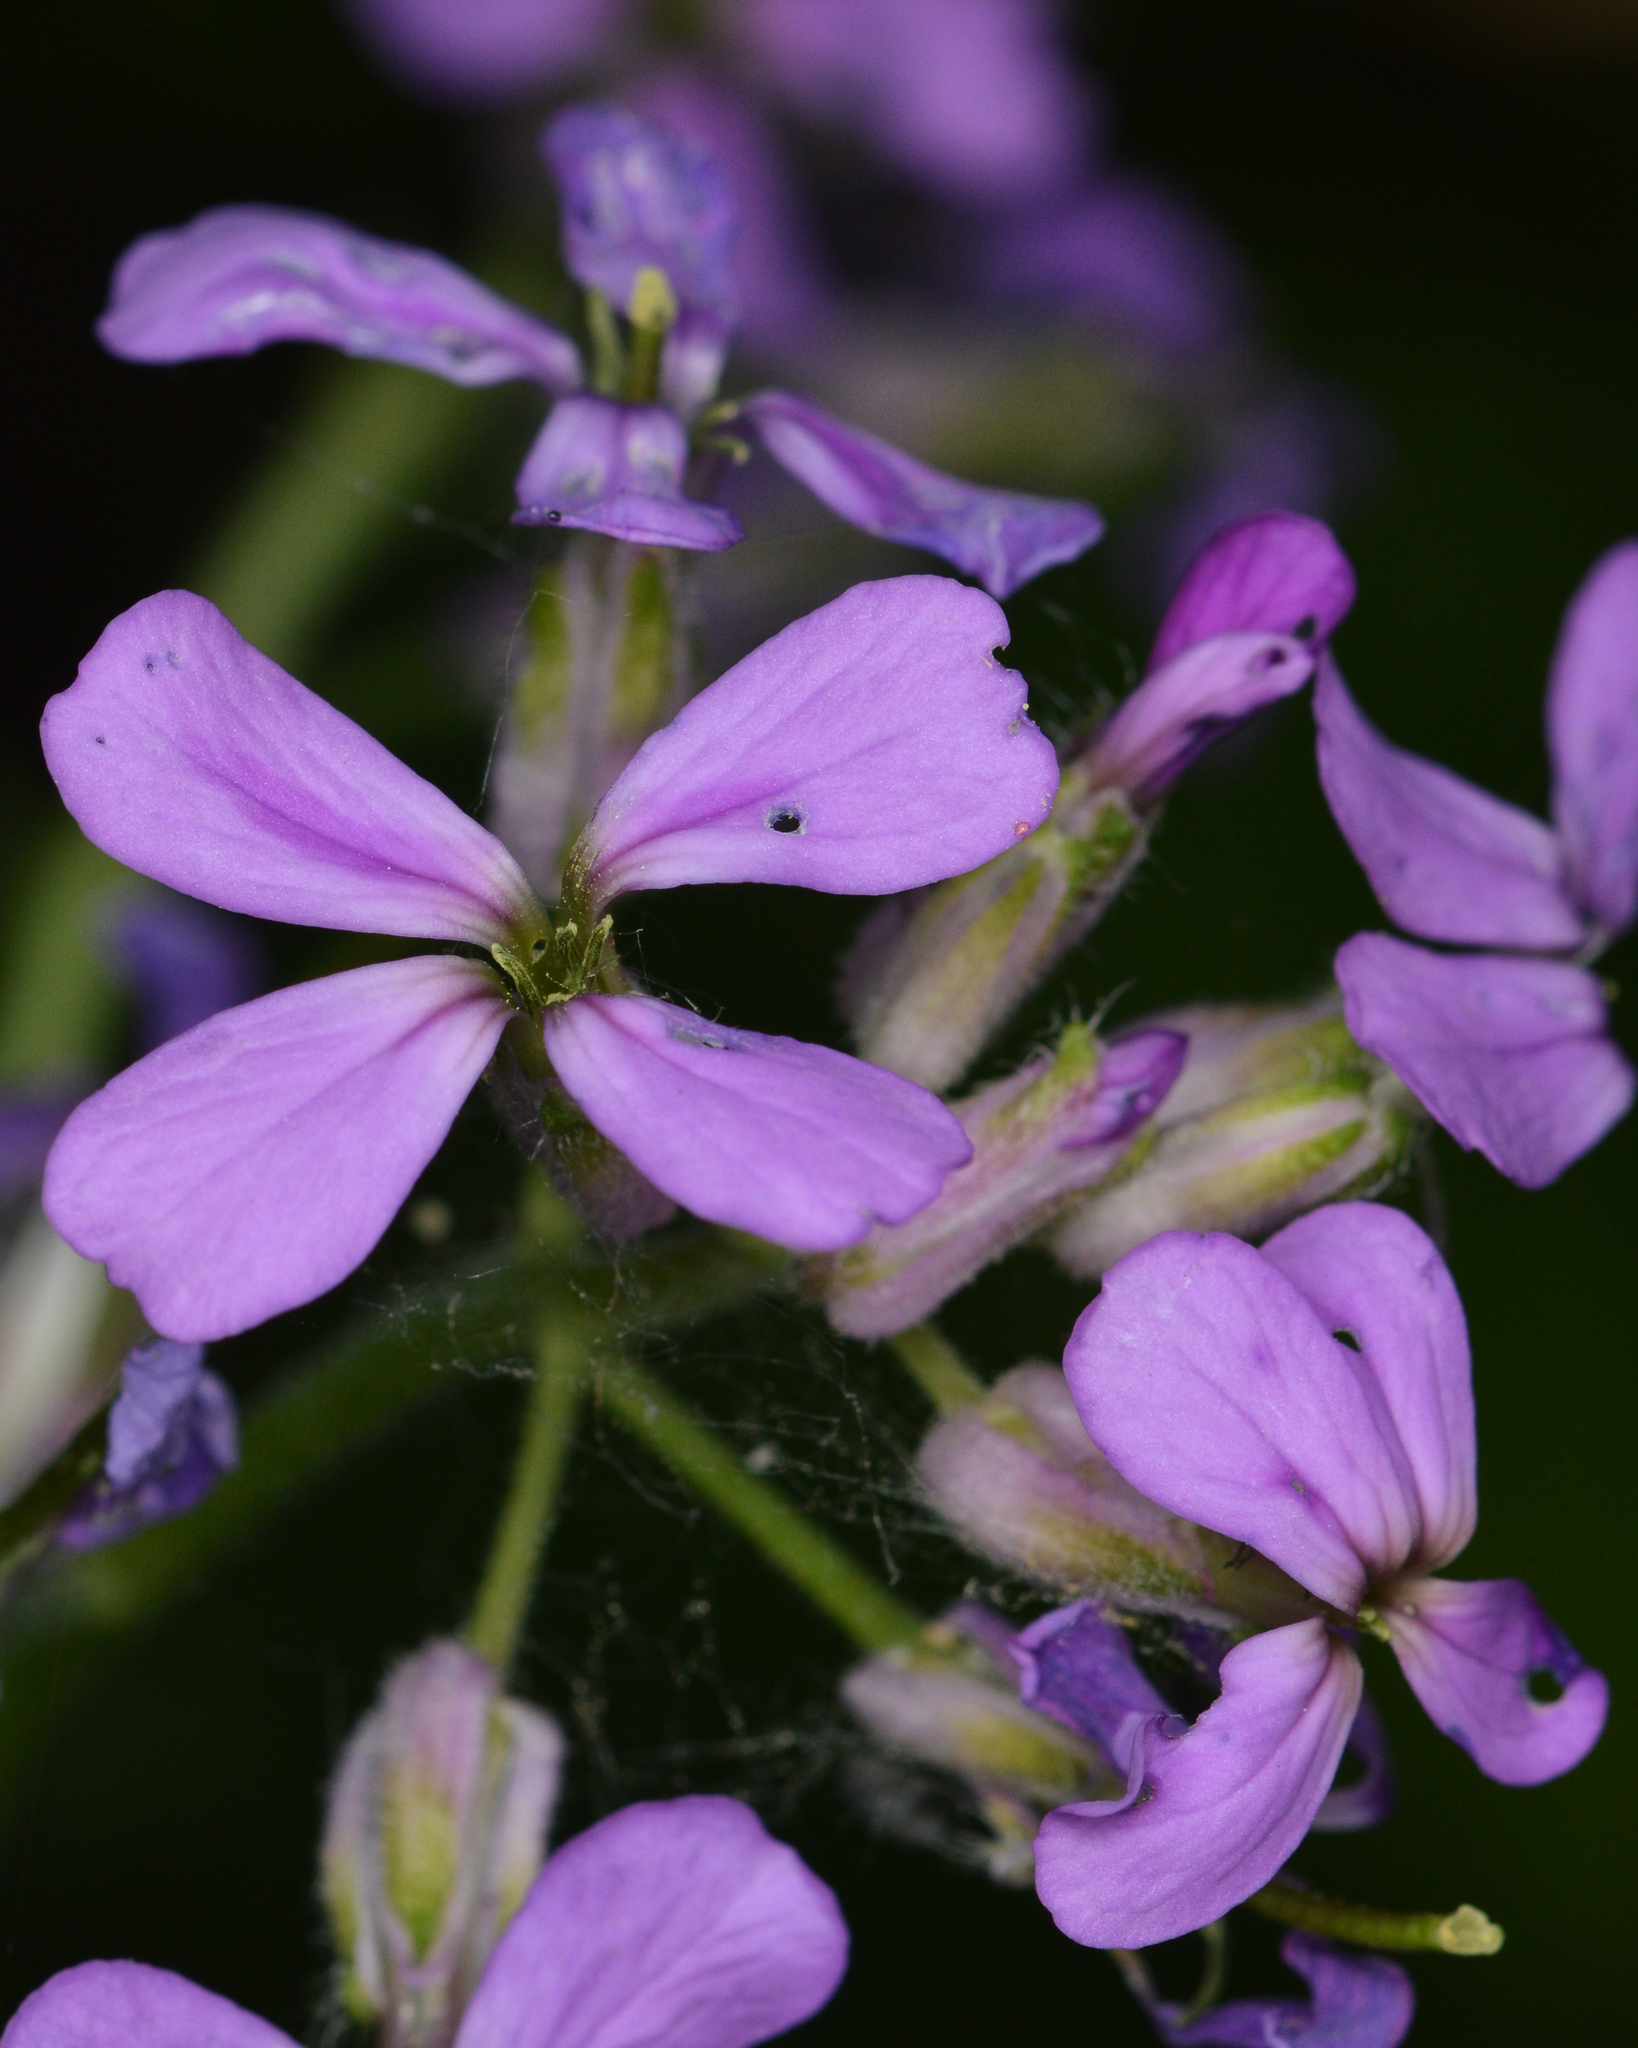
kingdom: Plantae
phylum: Tracheophyta
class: Magnoliopsida
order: Brassicales
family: Brassicaceae
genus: Hesperis
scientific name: Hesperis matronalis
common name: Dame's-violet
